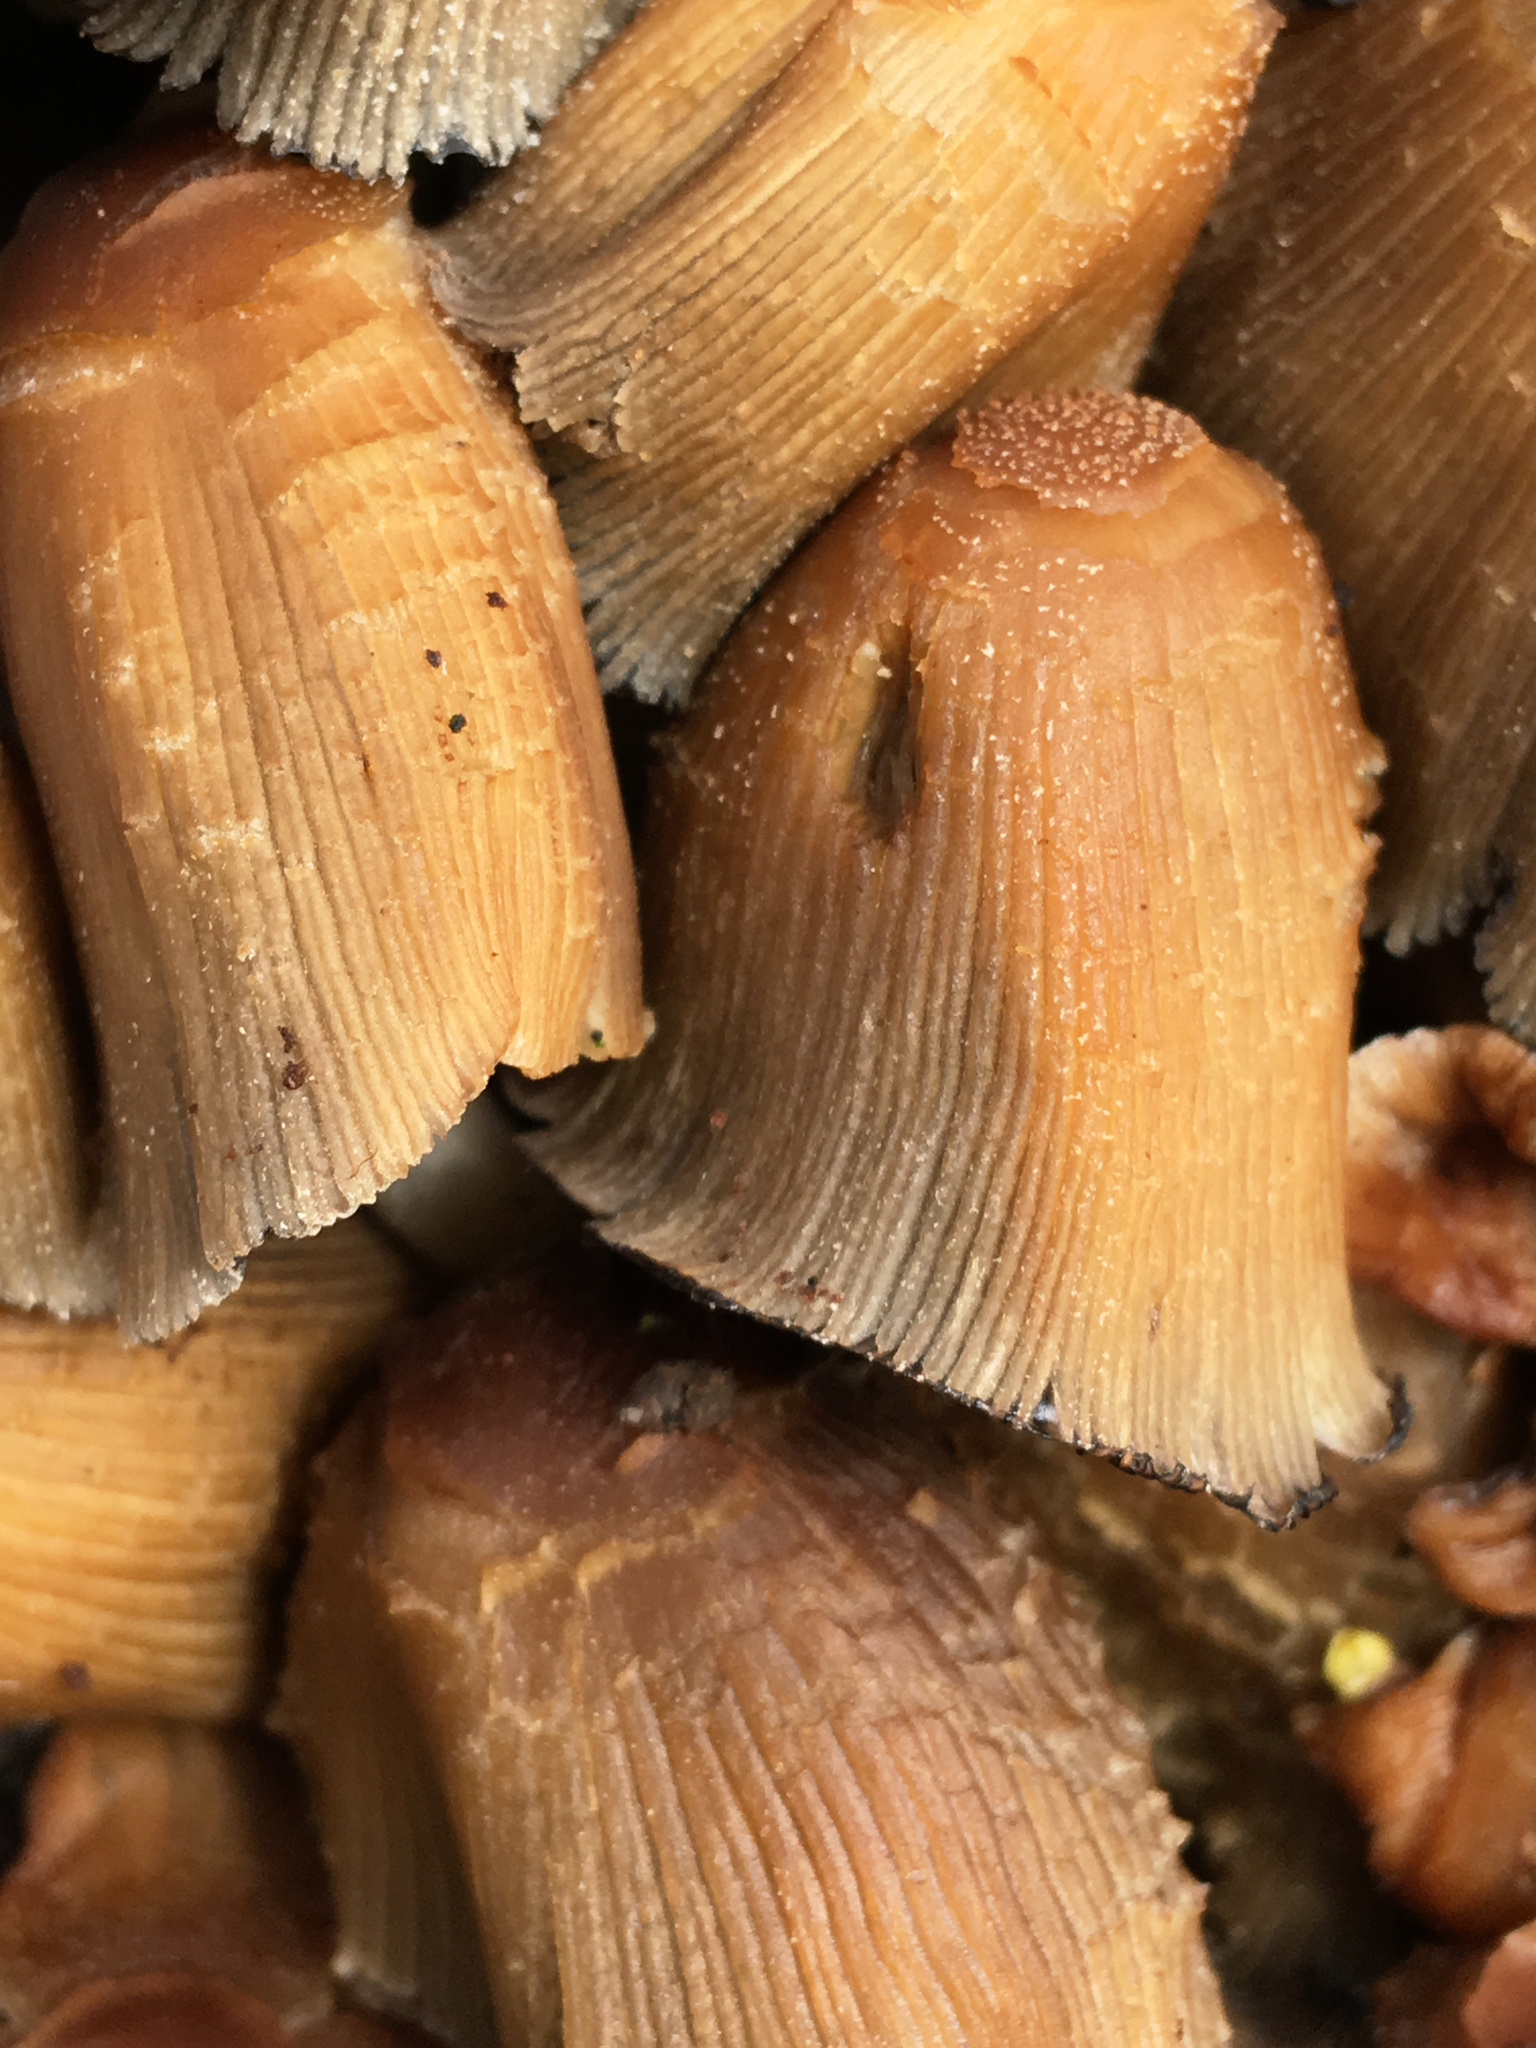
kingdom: Fungi
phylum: Basidiomycota
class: Agaricomycetes
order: Agaricales
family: Psathyrellaceae
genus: Coprinellus
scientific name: Coprinellus micaceus
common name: Glistening ink-cap
